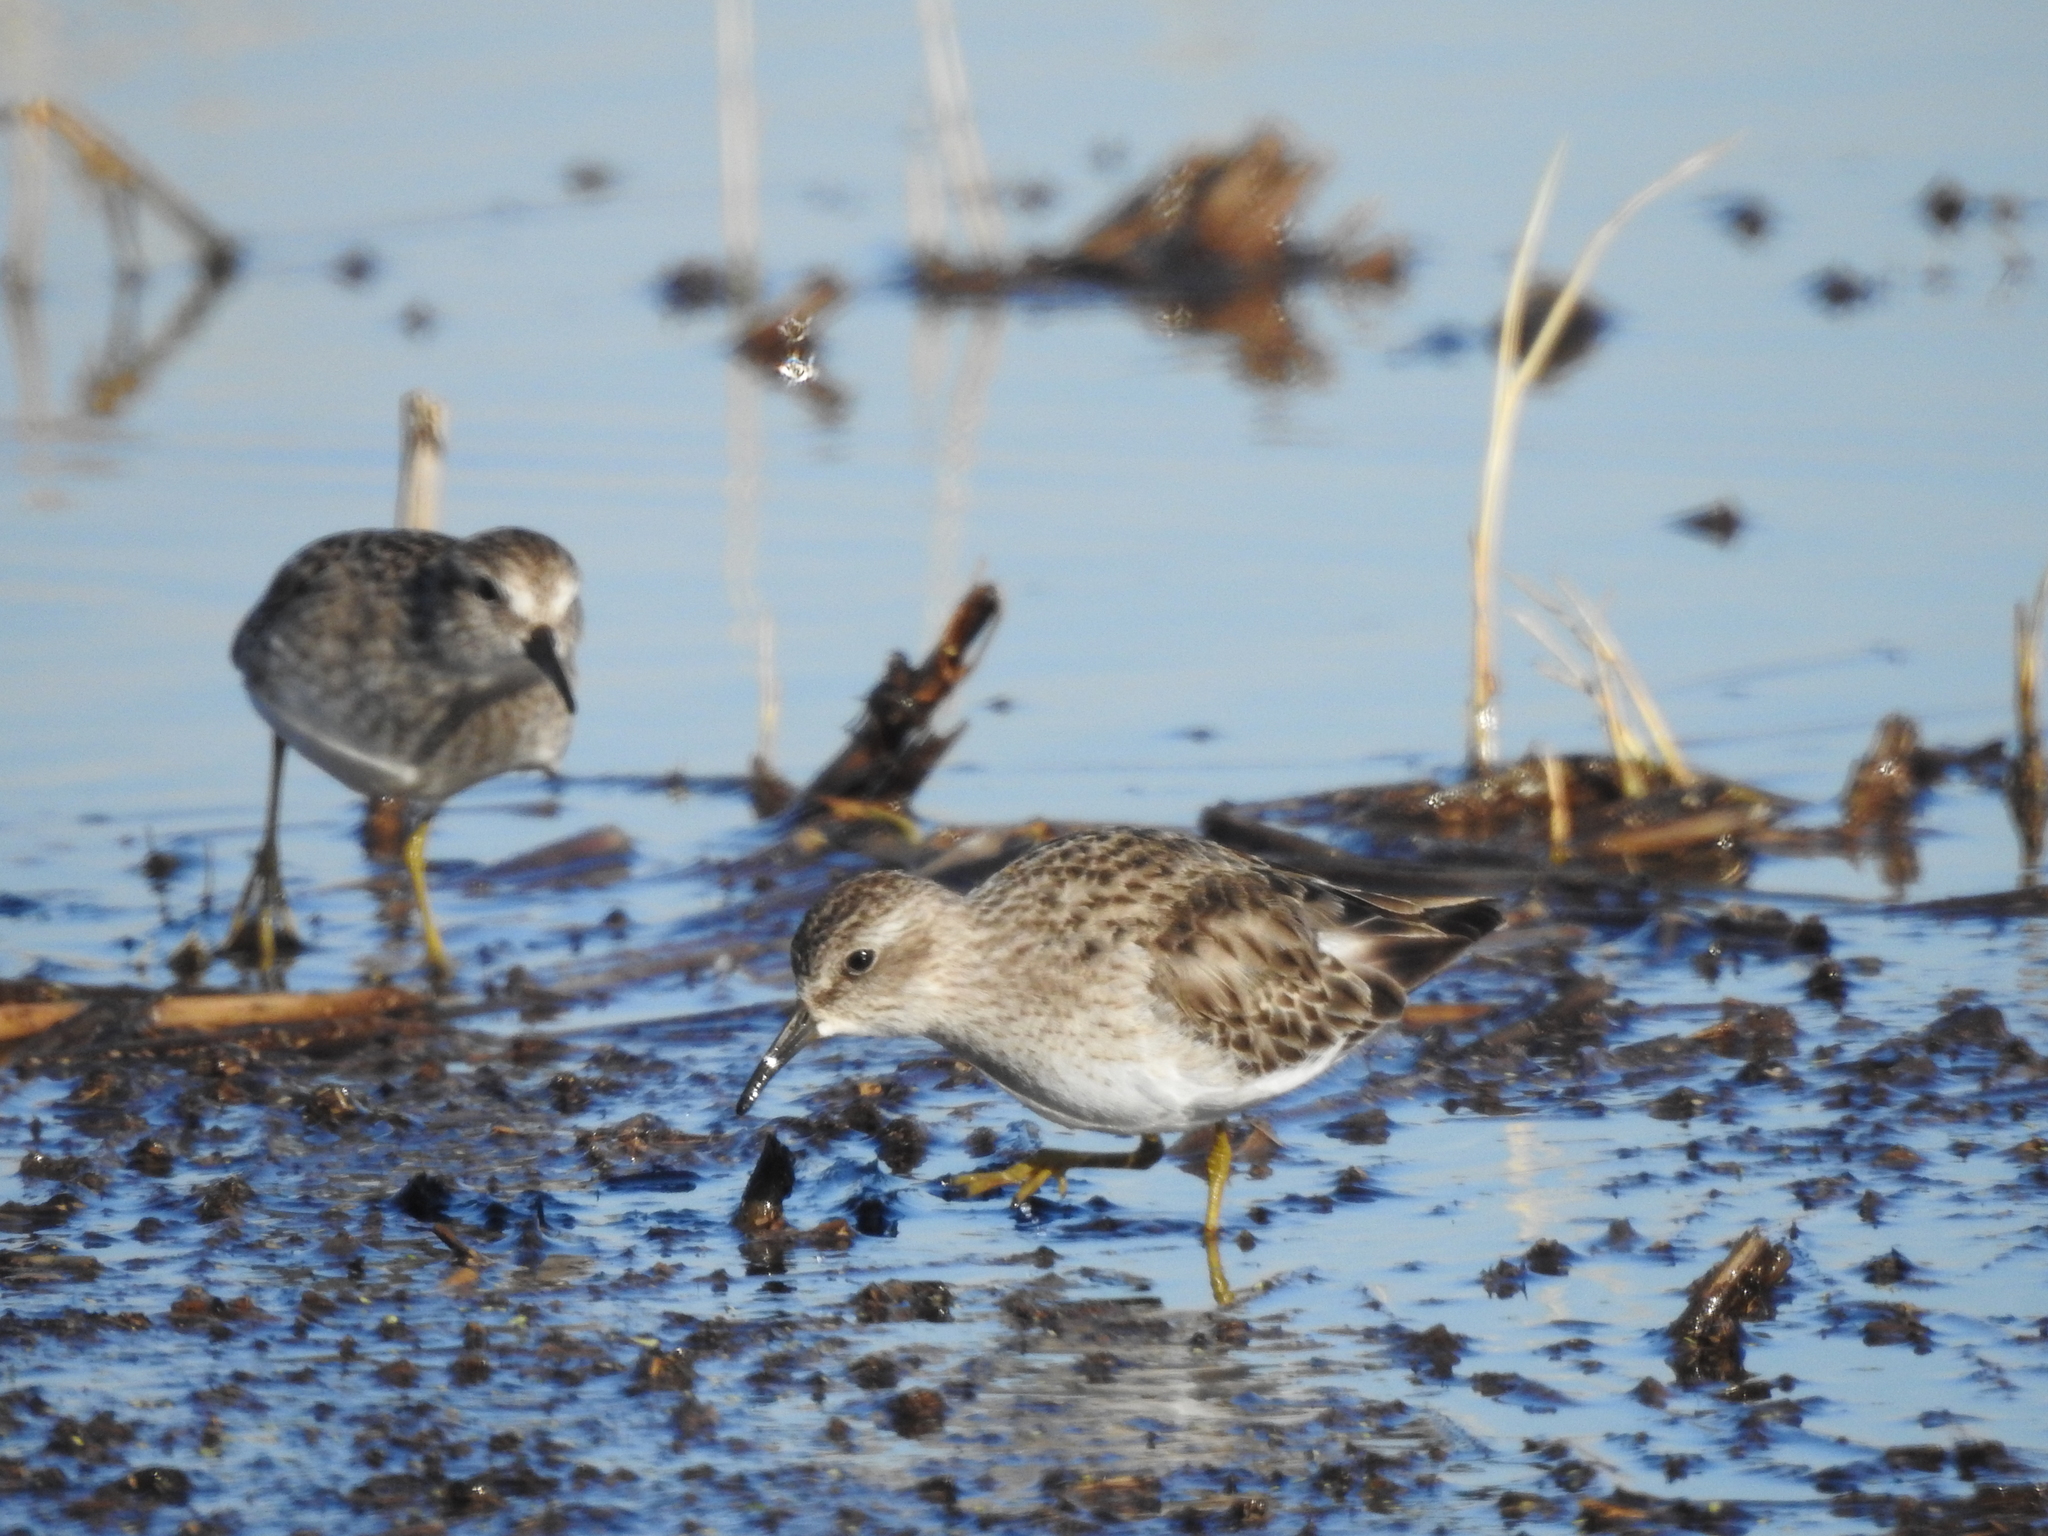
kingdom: Animalia
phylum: Chordata
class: Aves
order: Charadriiformes
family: Scolopacidae
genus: Calidris
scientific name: Calidris minutilla
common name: Least sandpiper
